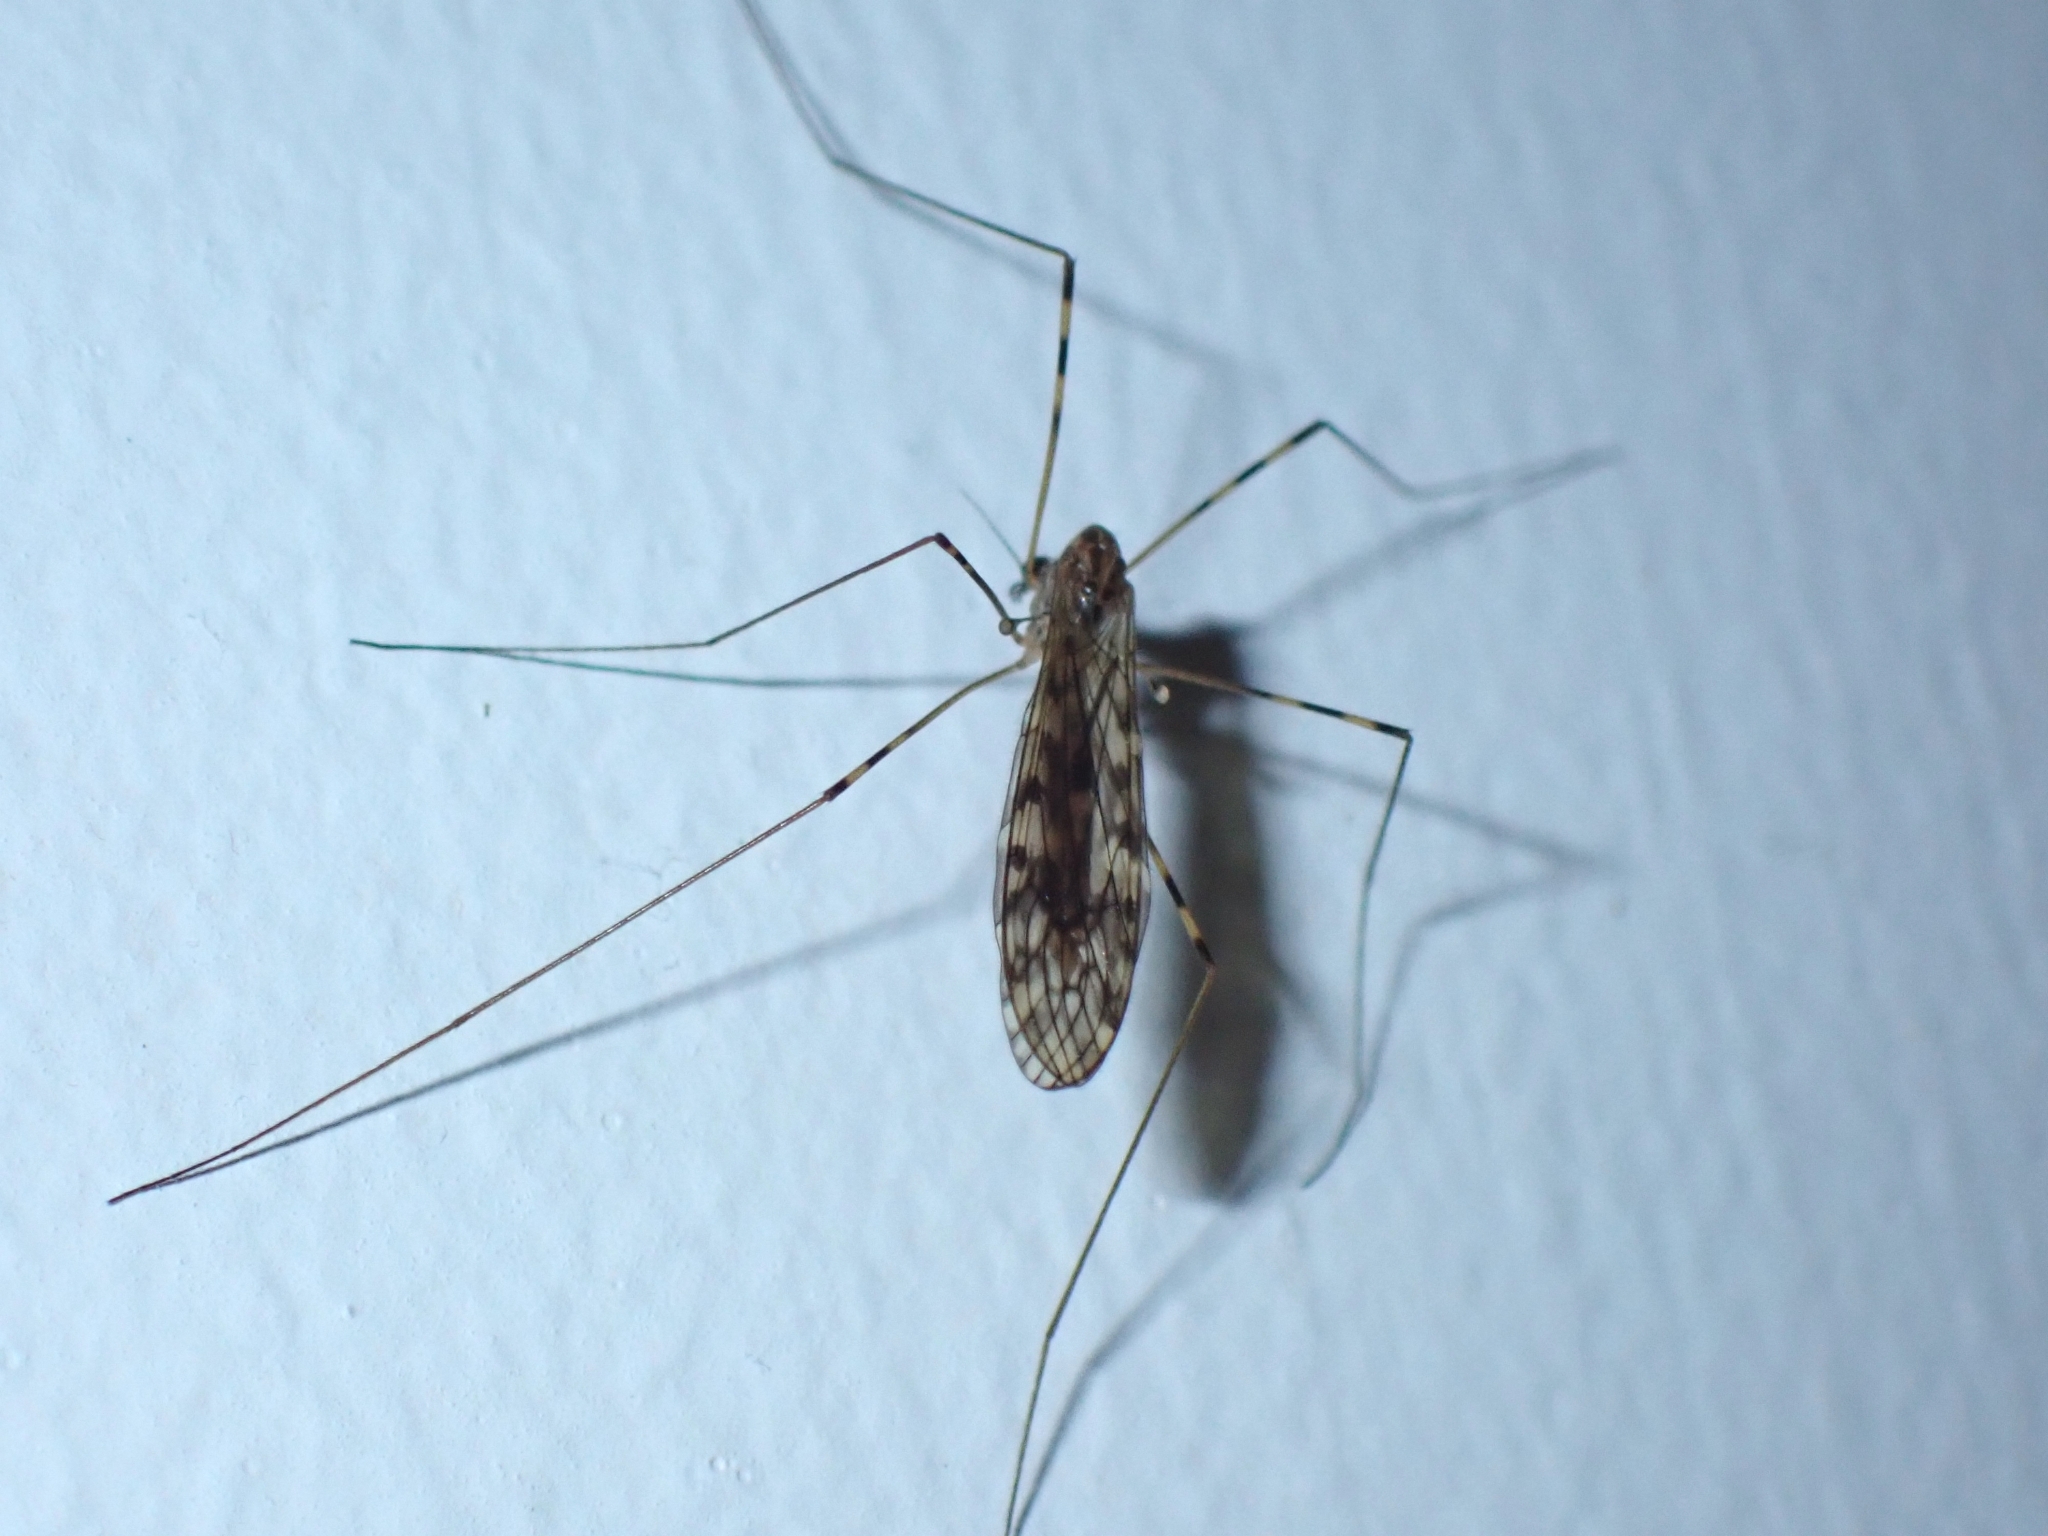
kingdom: Animalia
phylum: Arthropoda
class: Insecta
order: Diptera
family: Limoniidae
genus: Limonia
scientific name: Limonia nubeculosa
